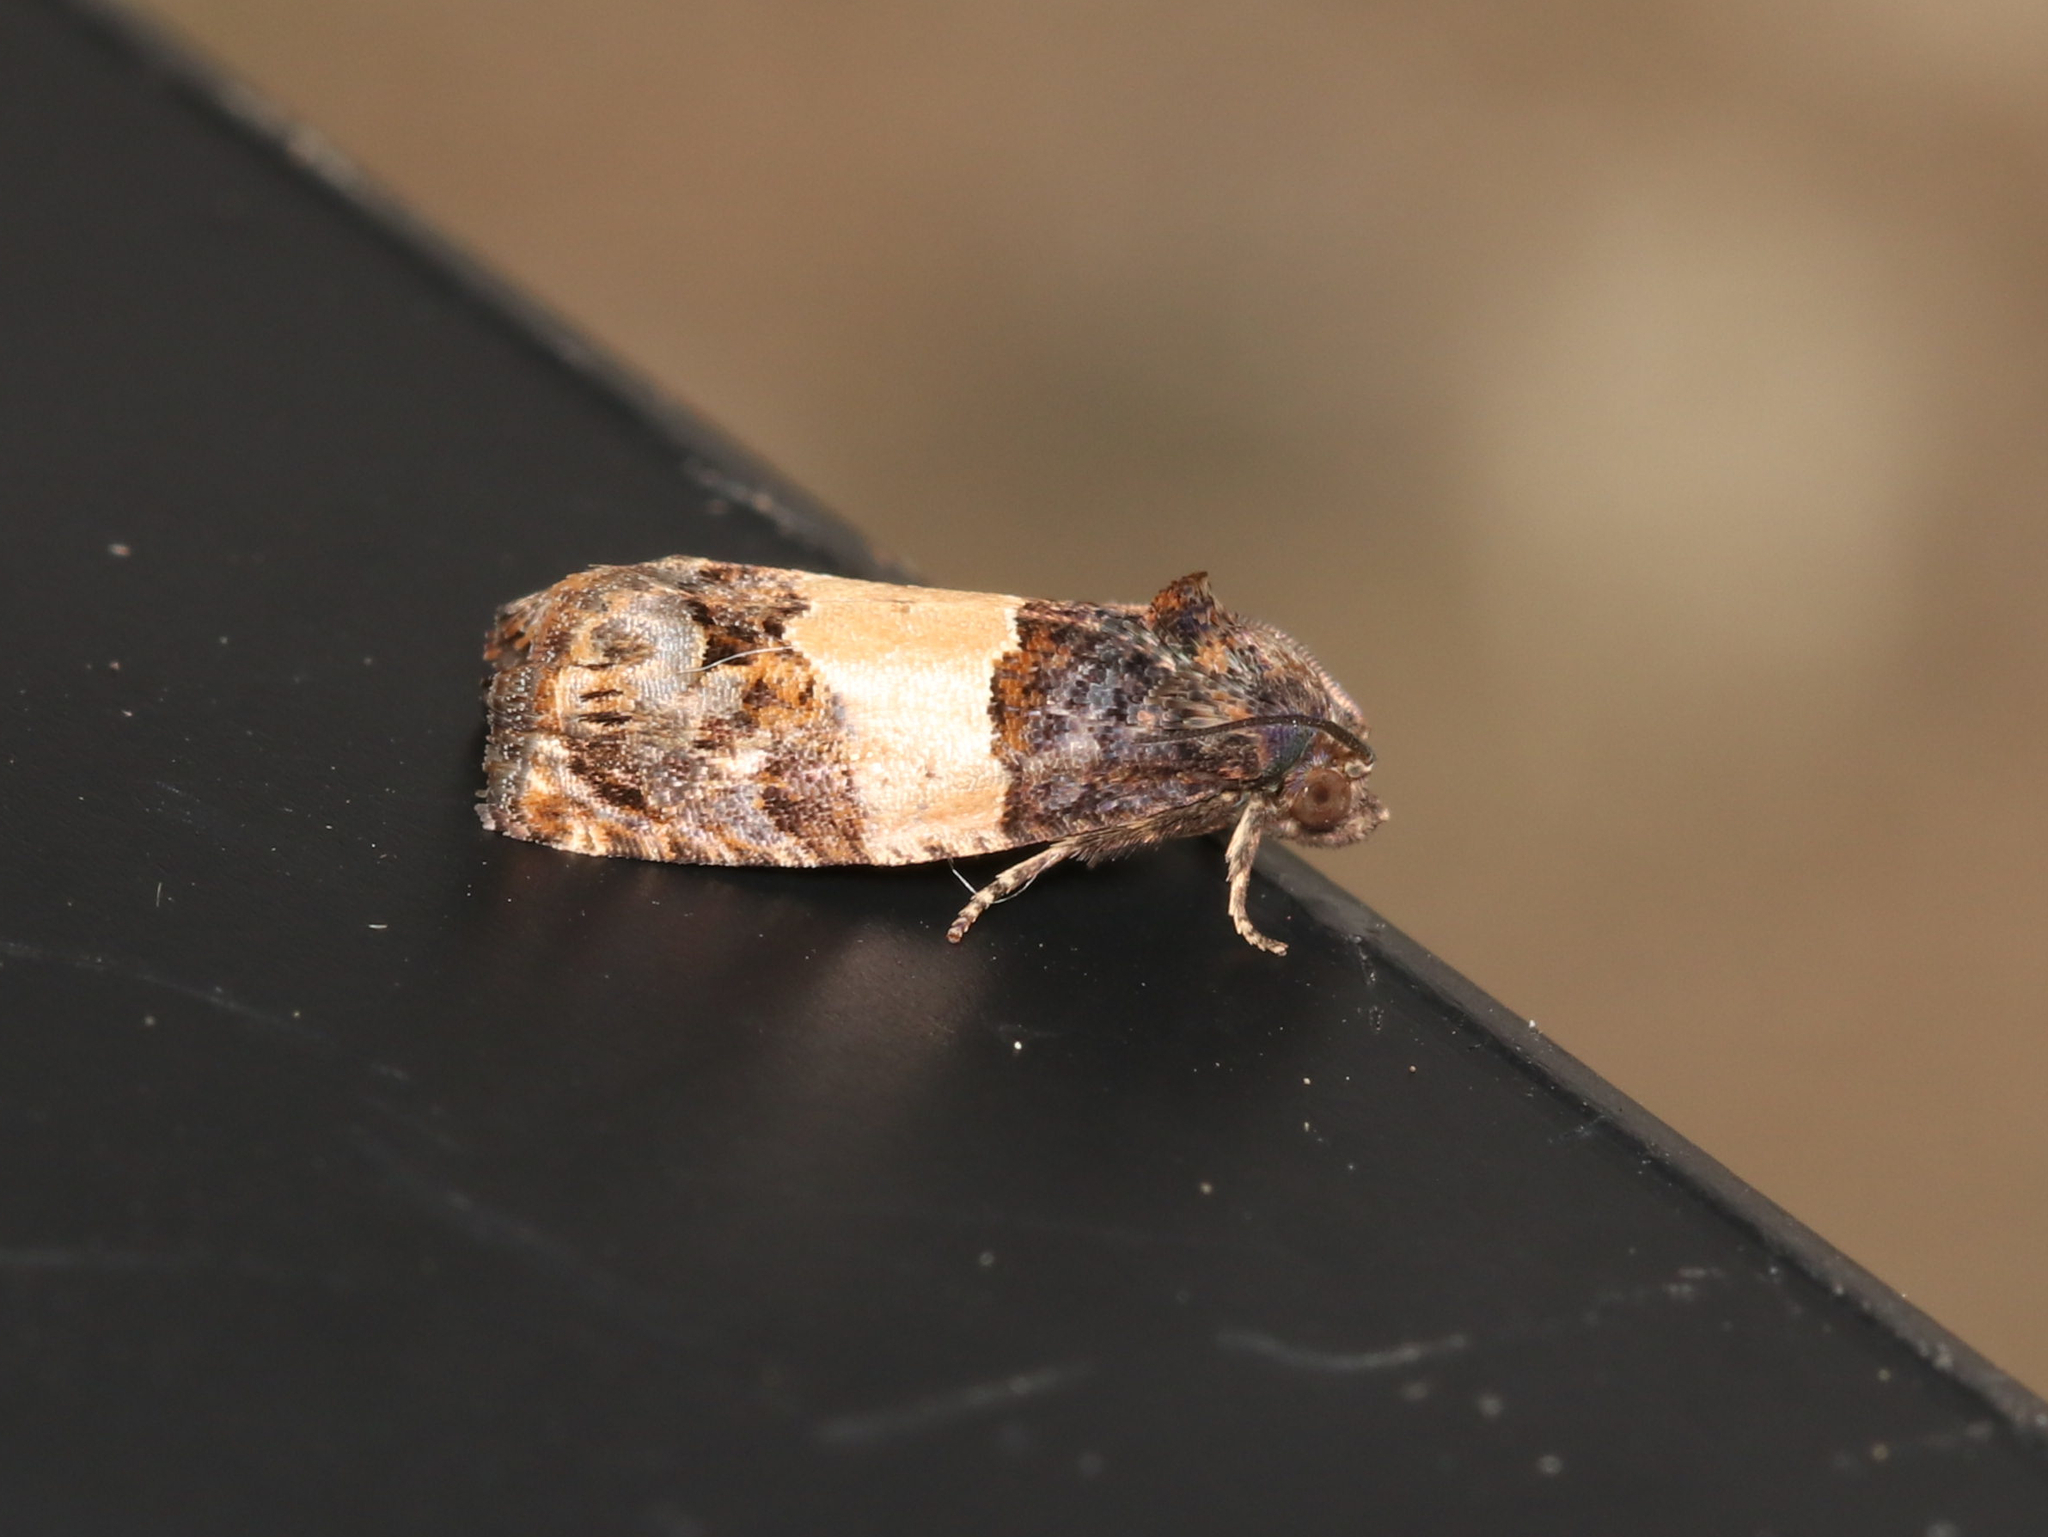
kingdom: Animalia
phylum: Arthropoda
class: Insecta
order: Lepidoptera
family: Tortricidae
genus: Epiblema
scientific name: Epiblema glenni
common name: Glenn's epiblema
